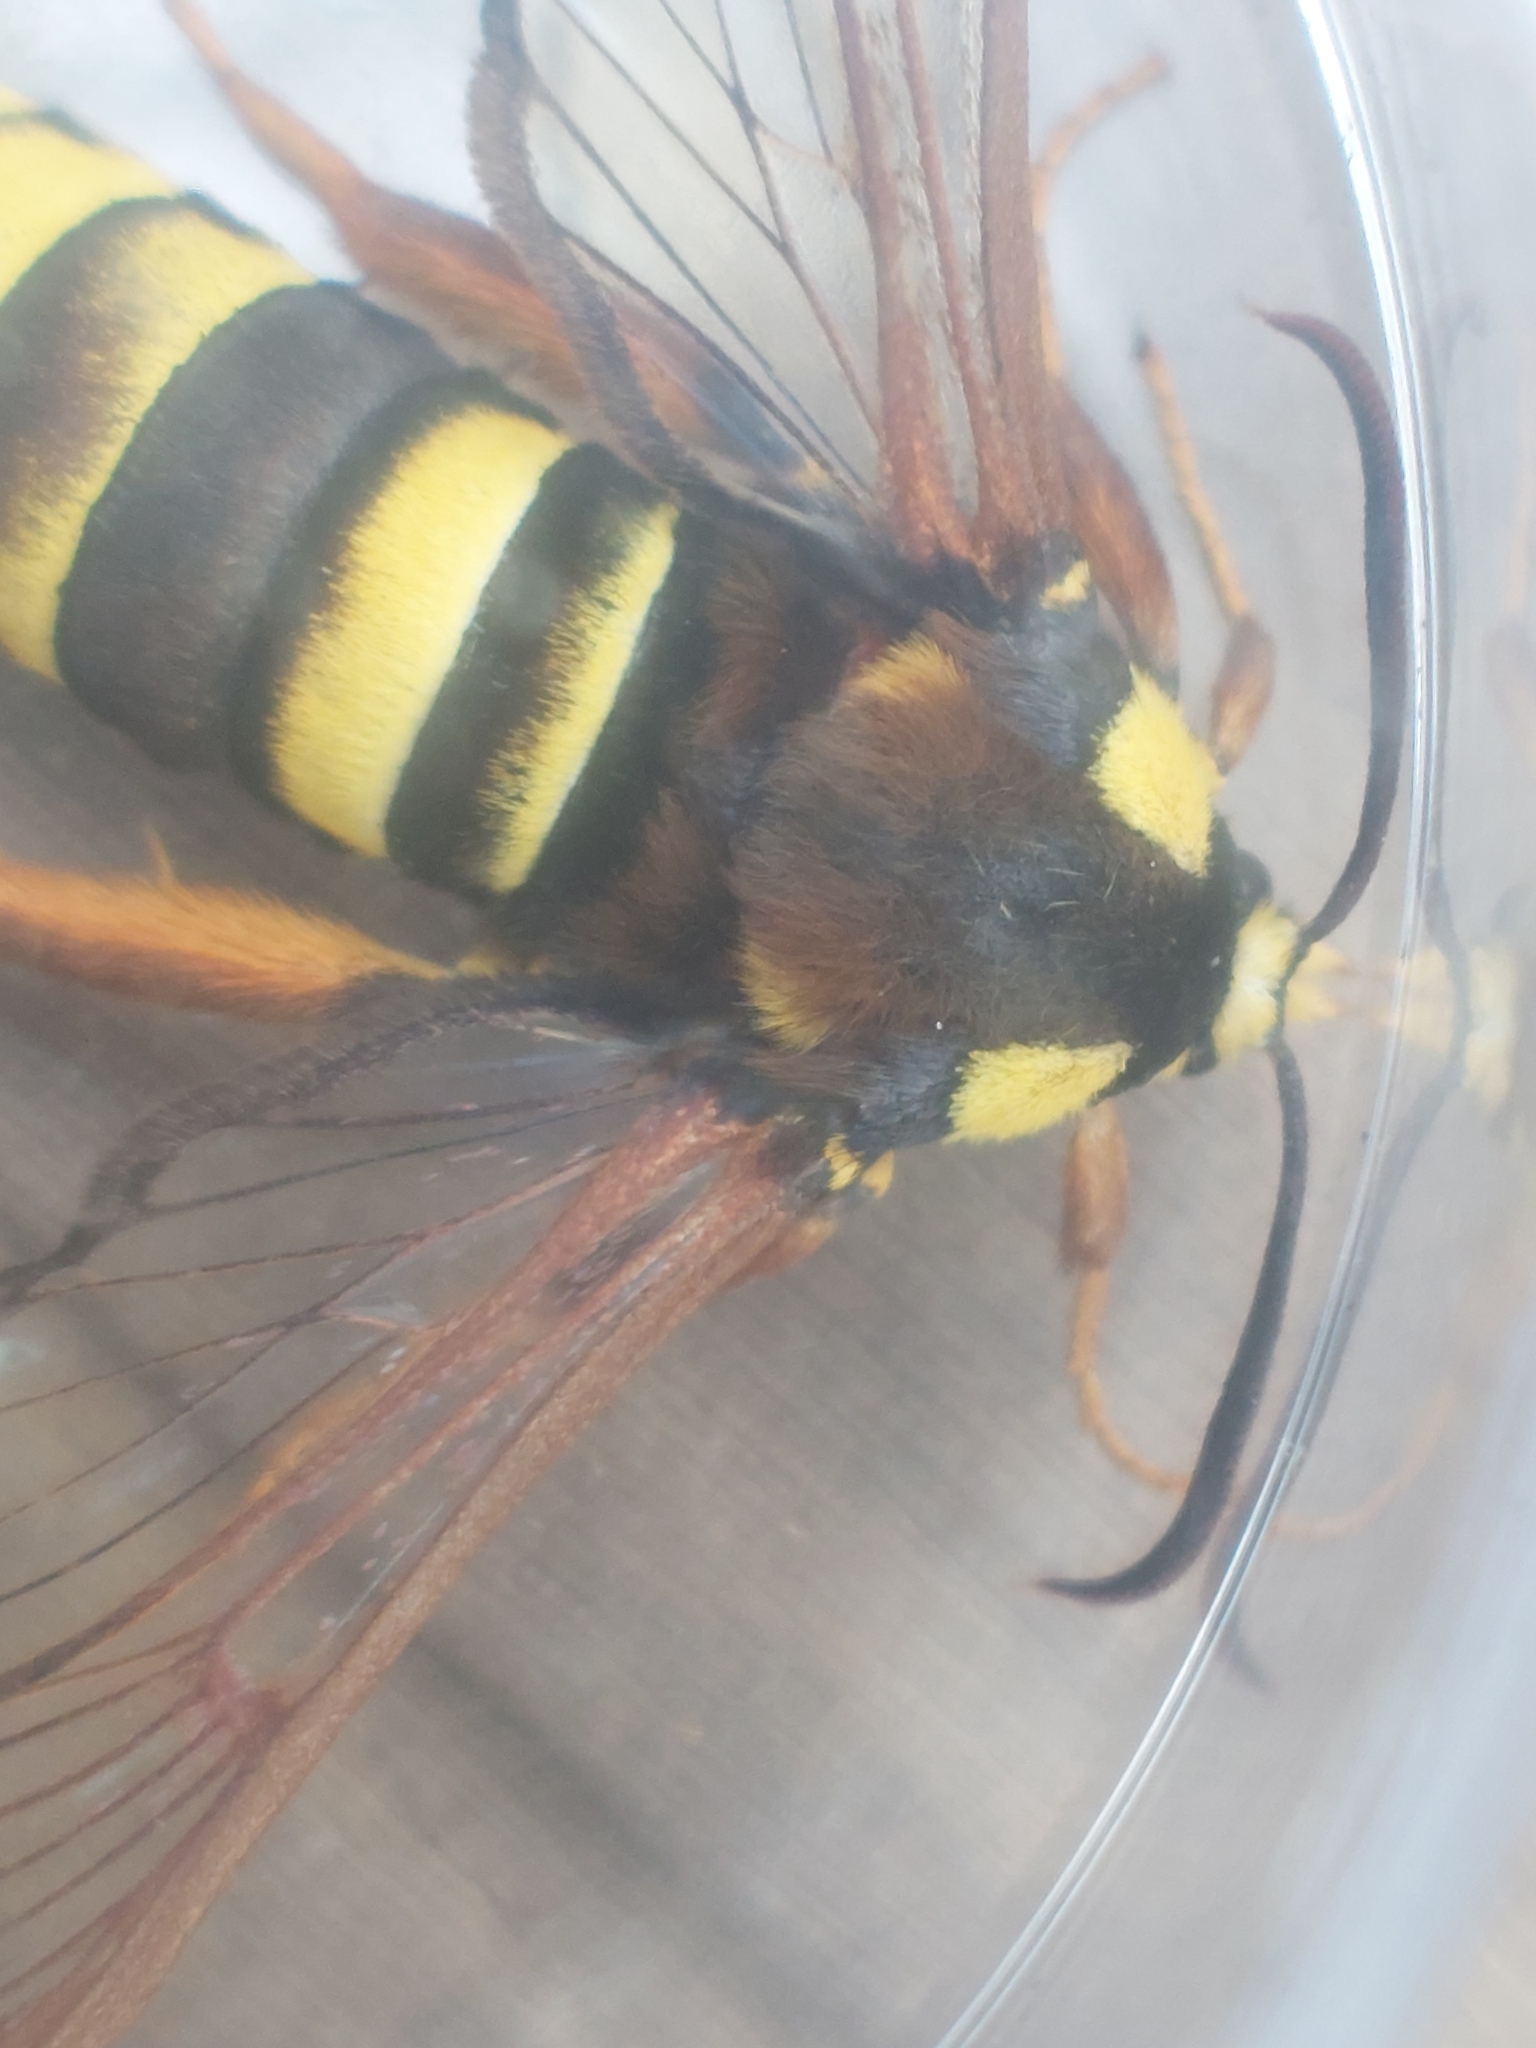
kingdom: Animalia
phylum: Arthropoda
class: Insecta
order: Lepidoptera
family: Sesiidae
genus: Sesia
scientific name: Sesia apiformis
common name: Hornet moth
